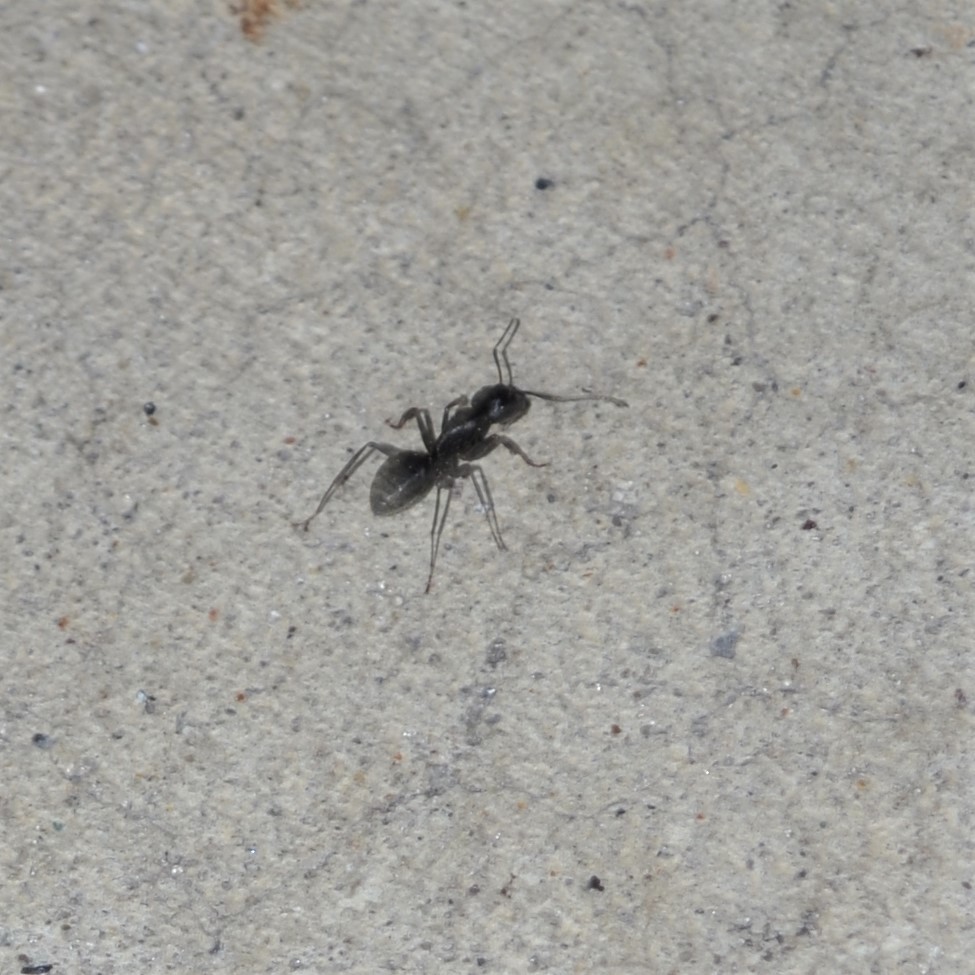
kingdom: Animalia
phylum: Arthropoda
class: Insecta
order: Hymenoptera
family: Formicidae
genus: Camponotus
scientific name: Camponotus pennsylvanicus
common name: Black carpenter ant
